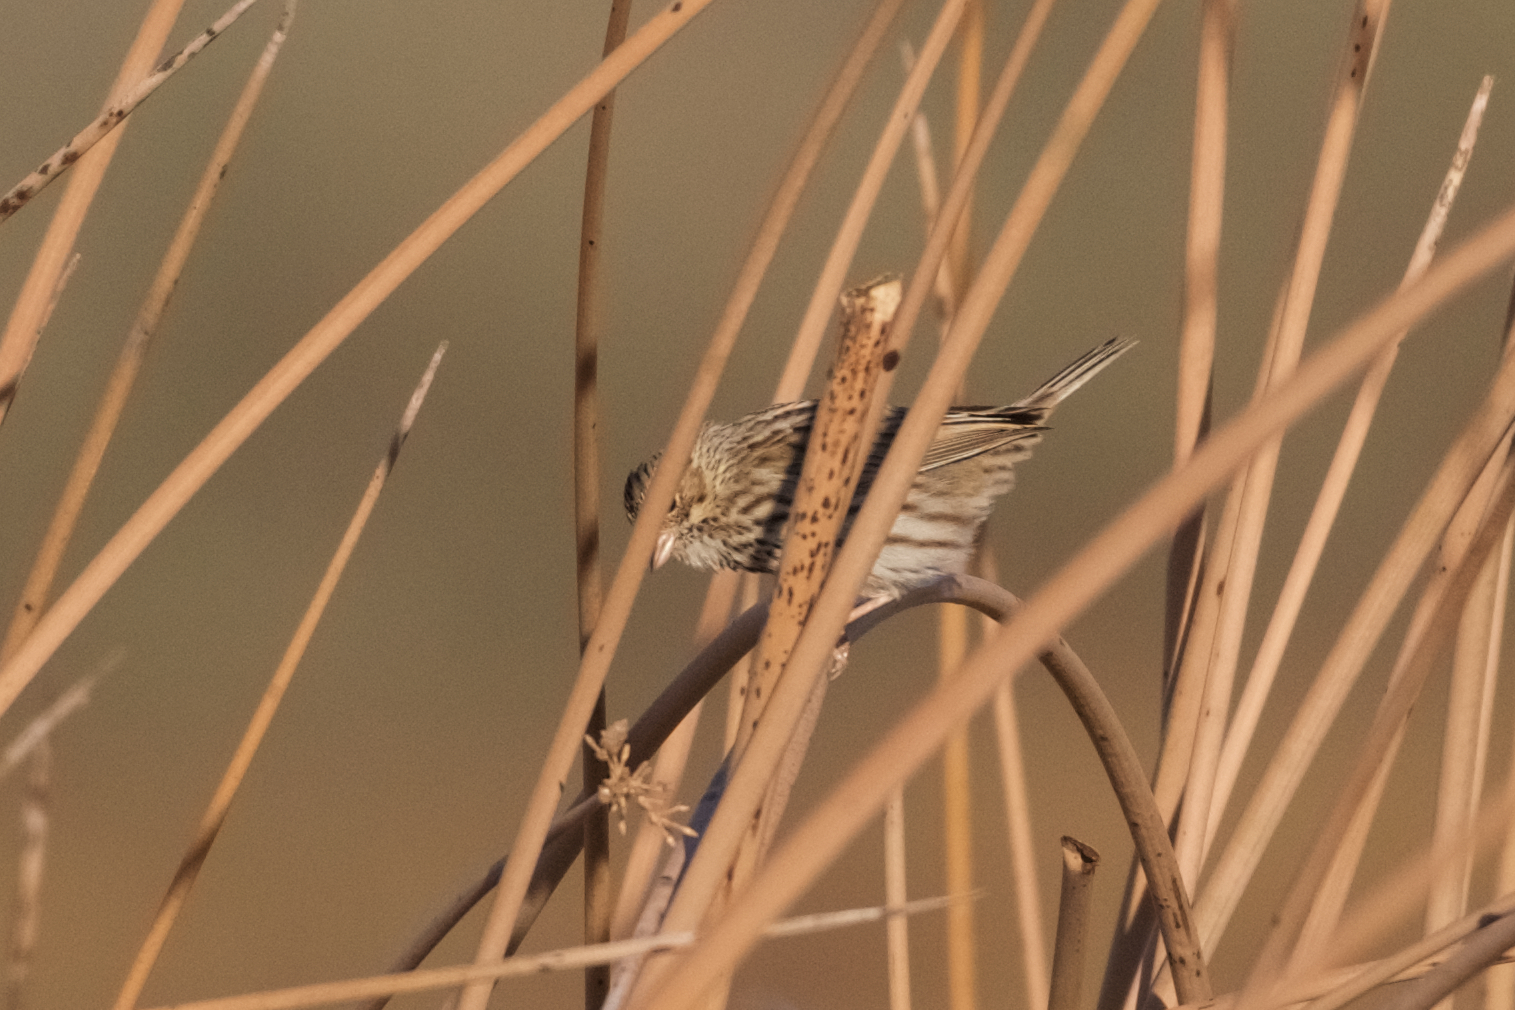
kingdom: Animalia
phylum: Chordata
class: Aves
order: Passeriformes
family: Passerellidae
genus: Passerculus
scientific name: Passerculus sandwichensis
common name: Savannah sparrow
